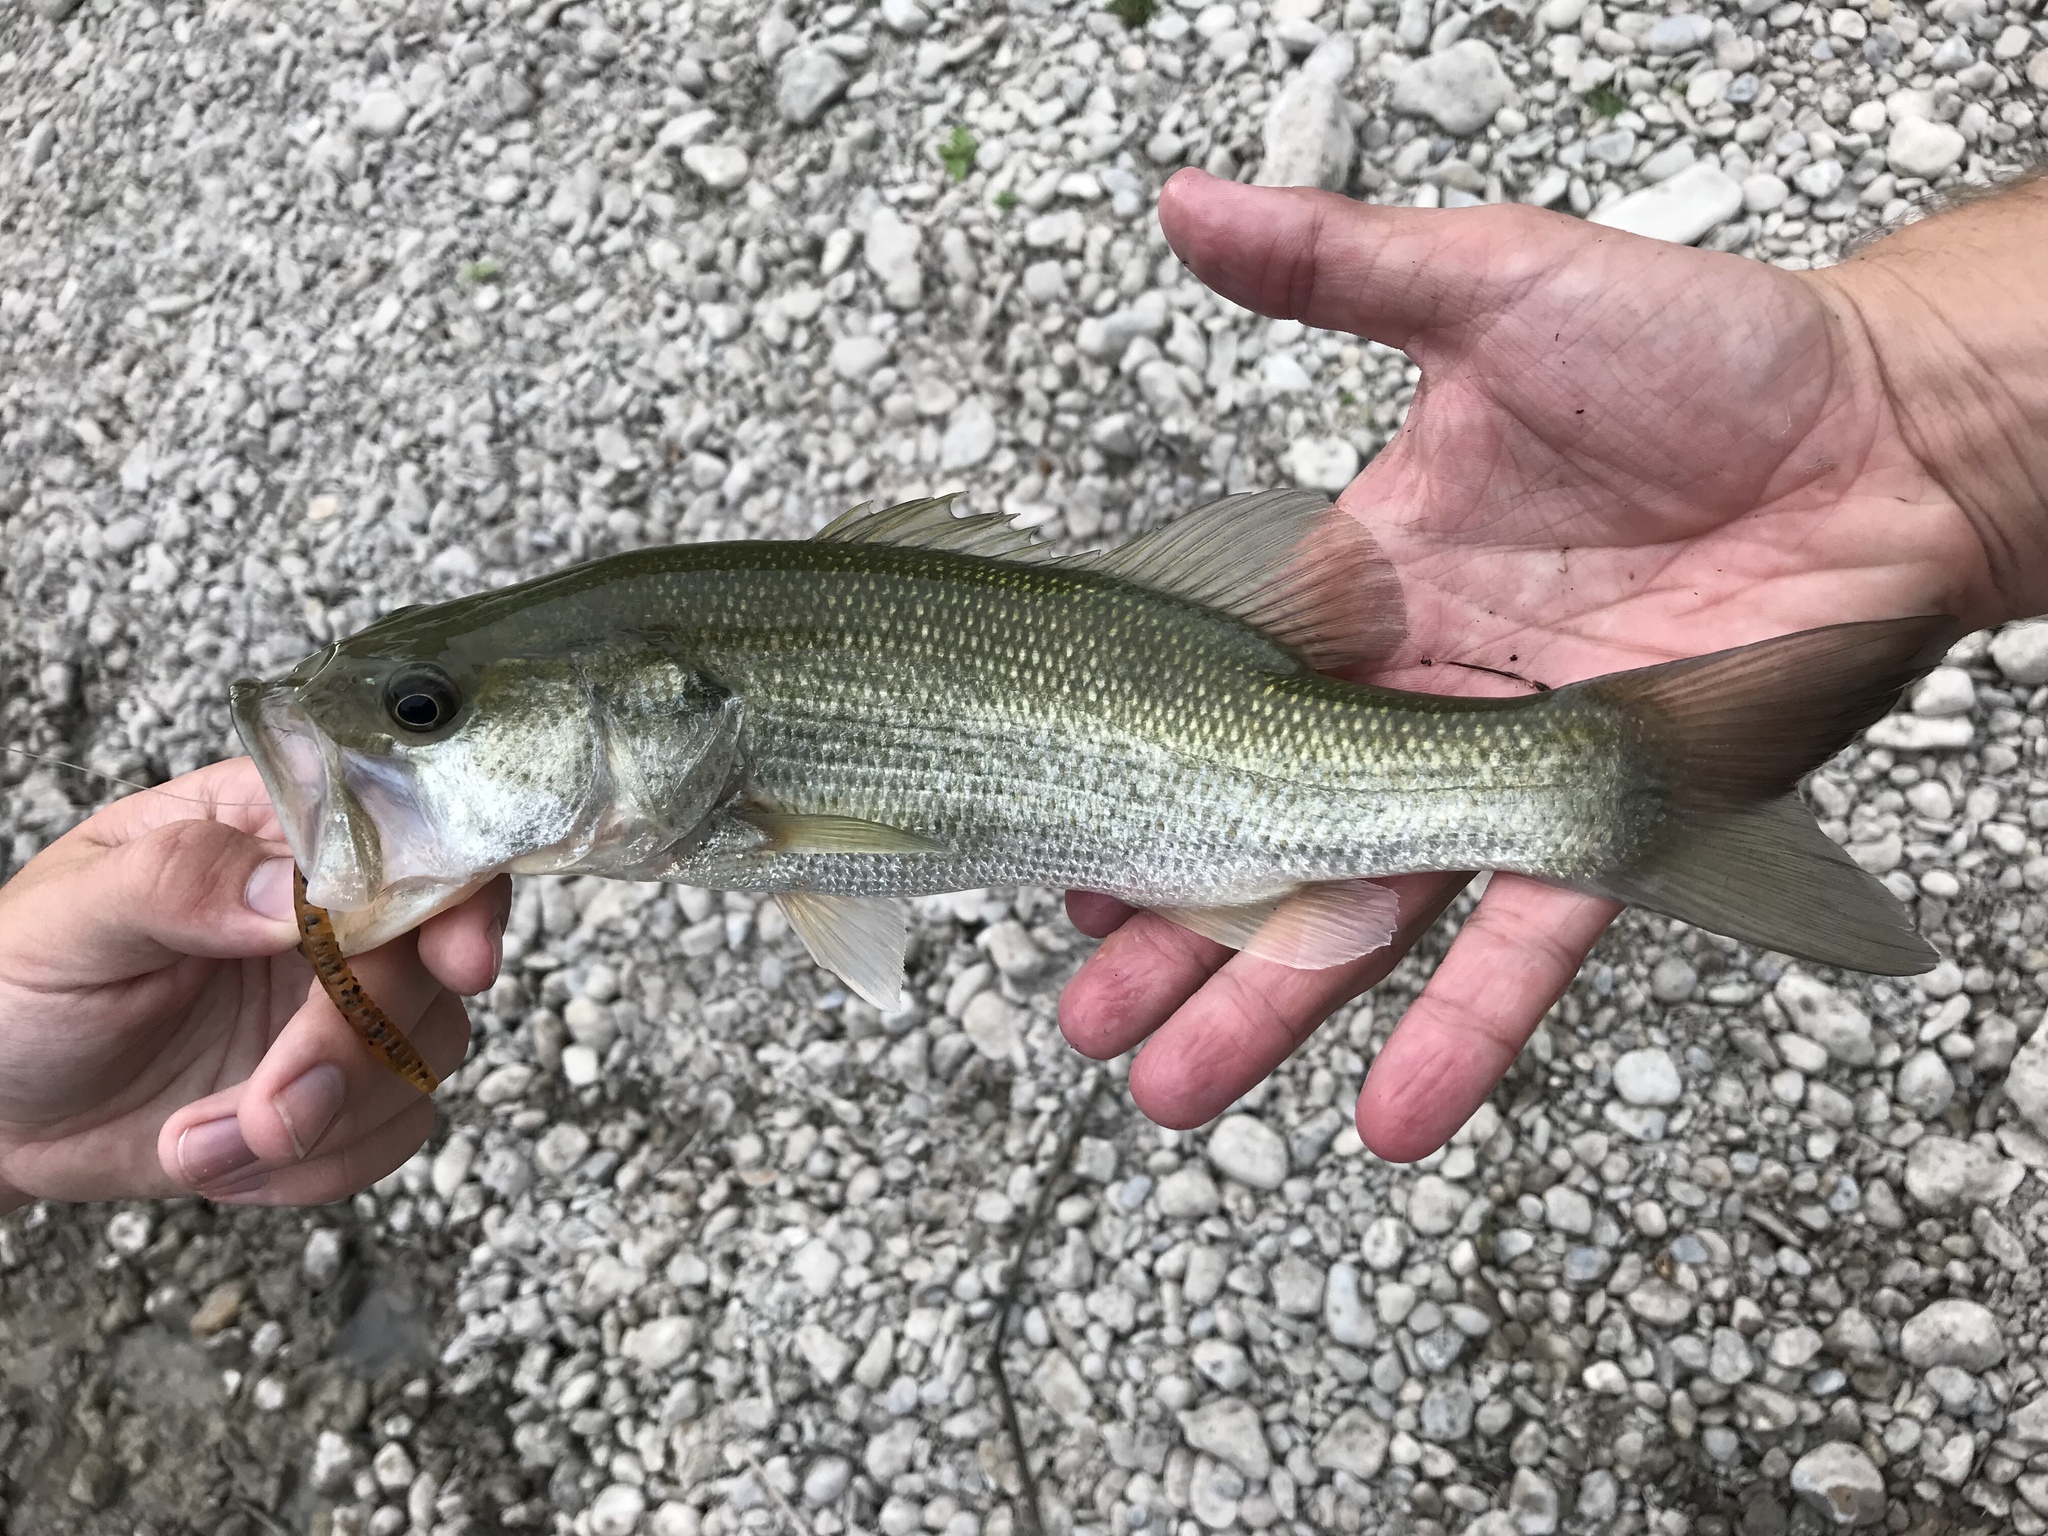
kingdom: Animalia
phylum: Chordata
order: Perciformes
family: Centrarchidae
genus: Micropterus
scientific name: Micropterus
